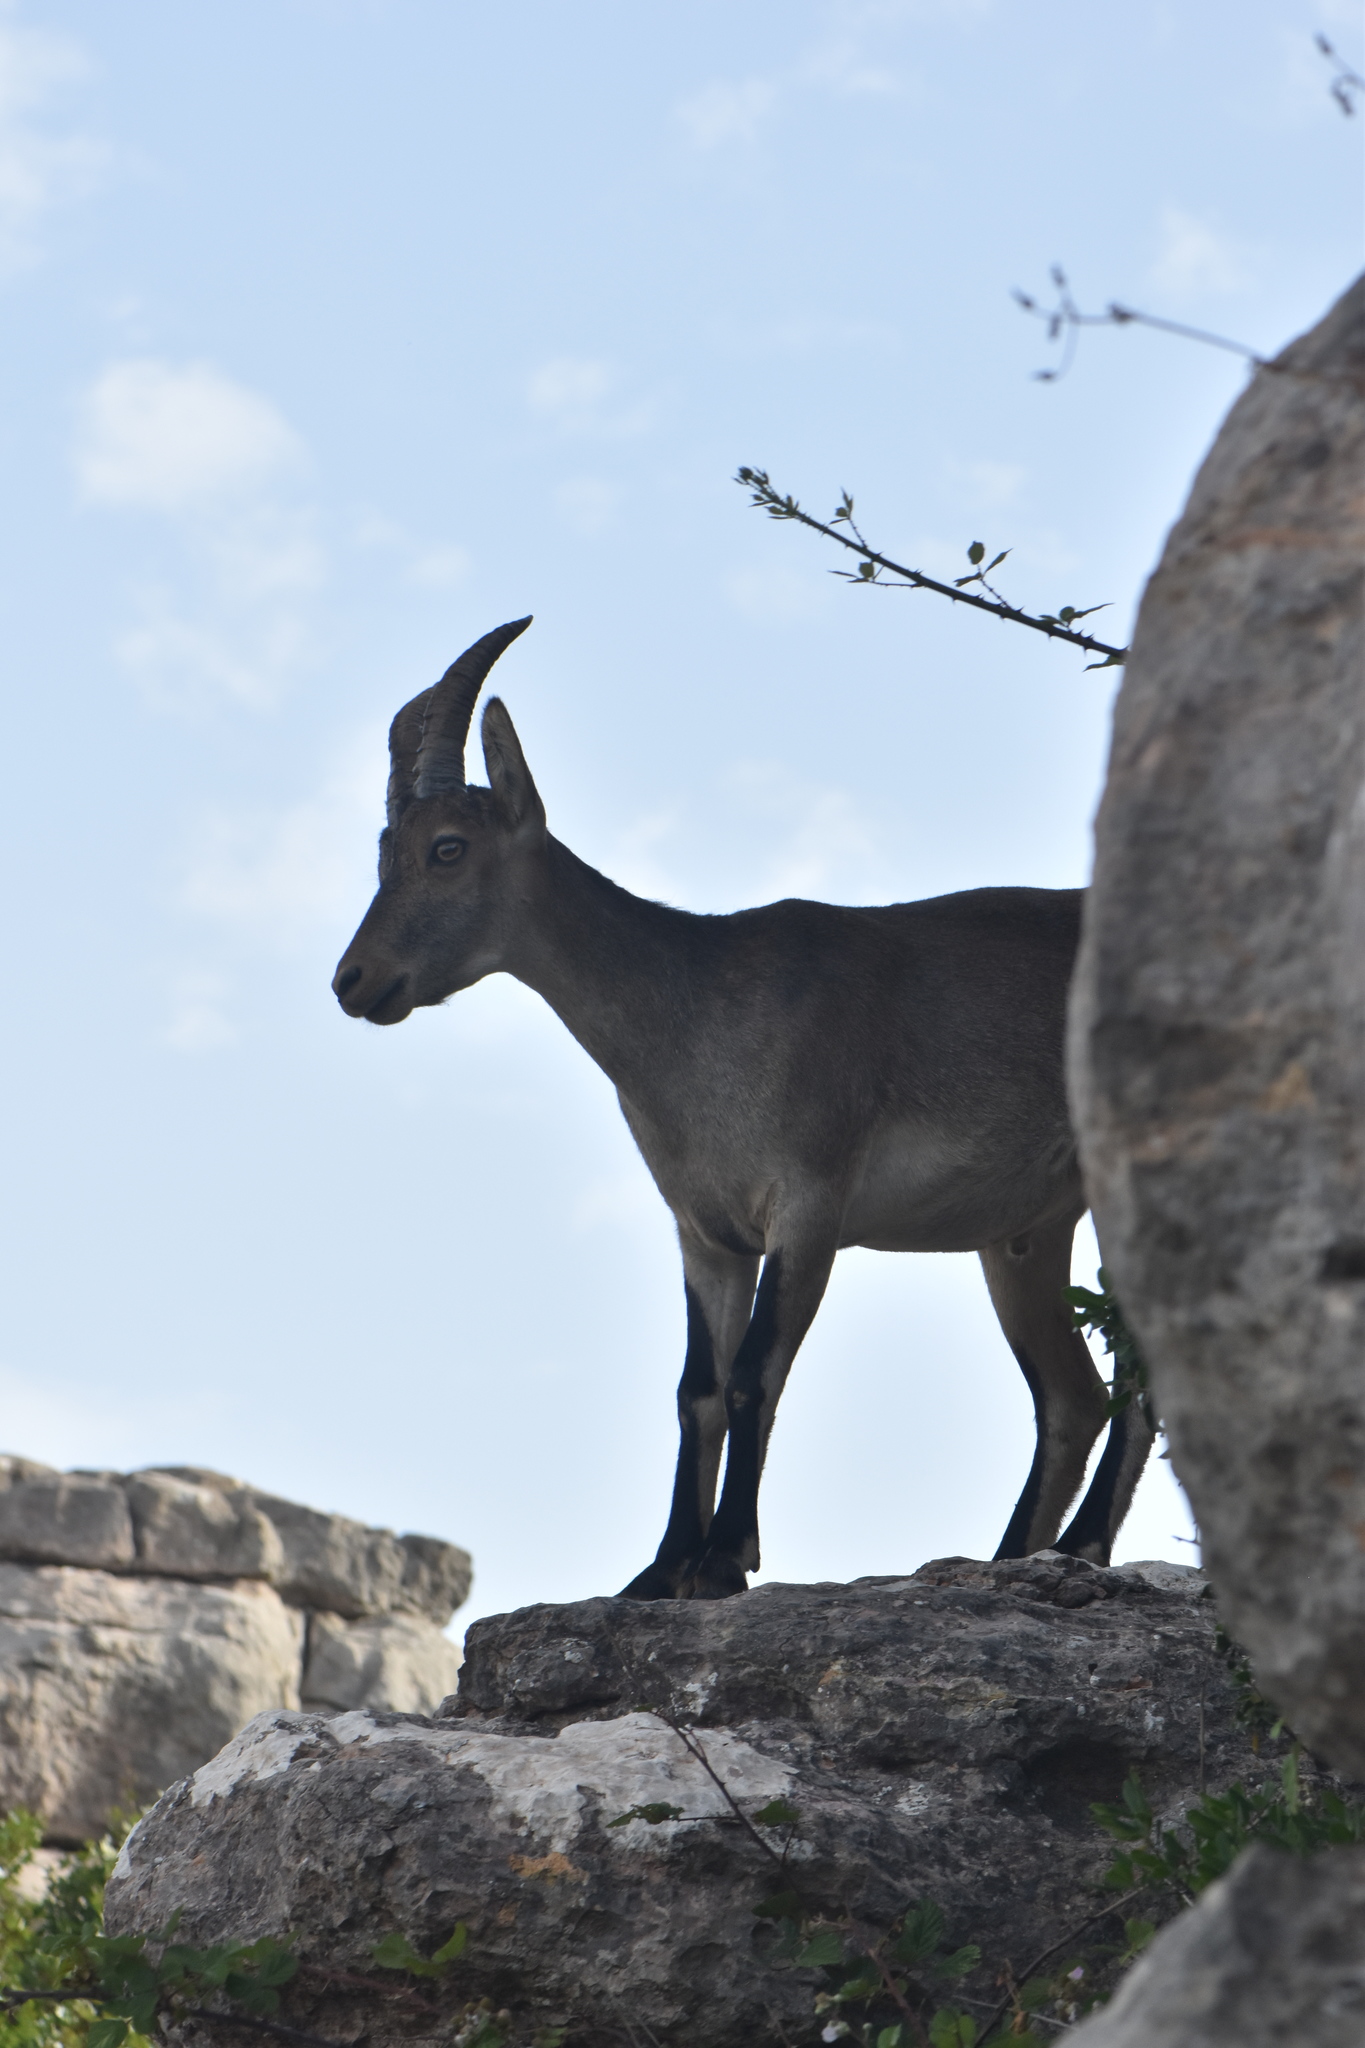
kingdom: Animalia
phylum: Chordata
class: Mammalia
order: Artiodactyla
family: Bovidae
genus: Capra
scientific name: Capra pyrenaica
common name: Spanish ibex
